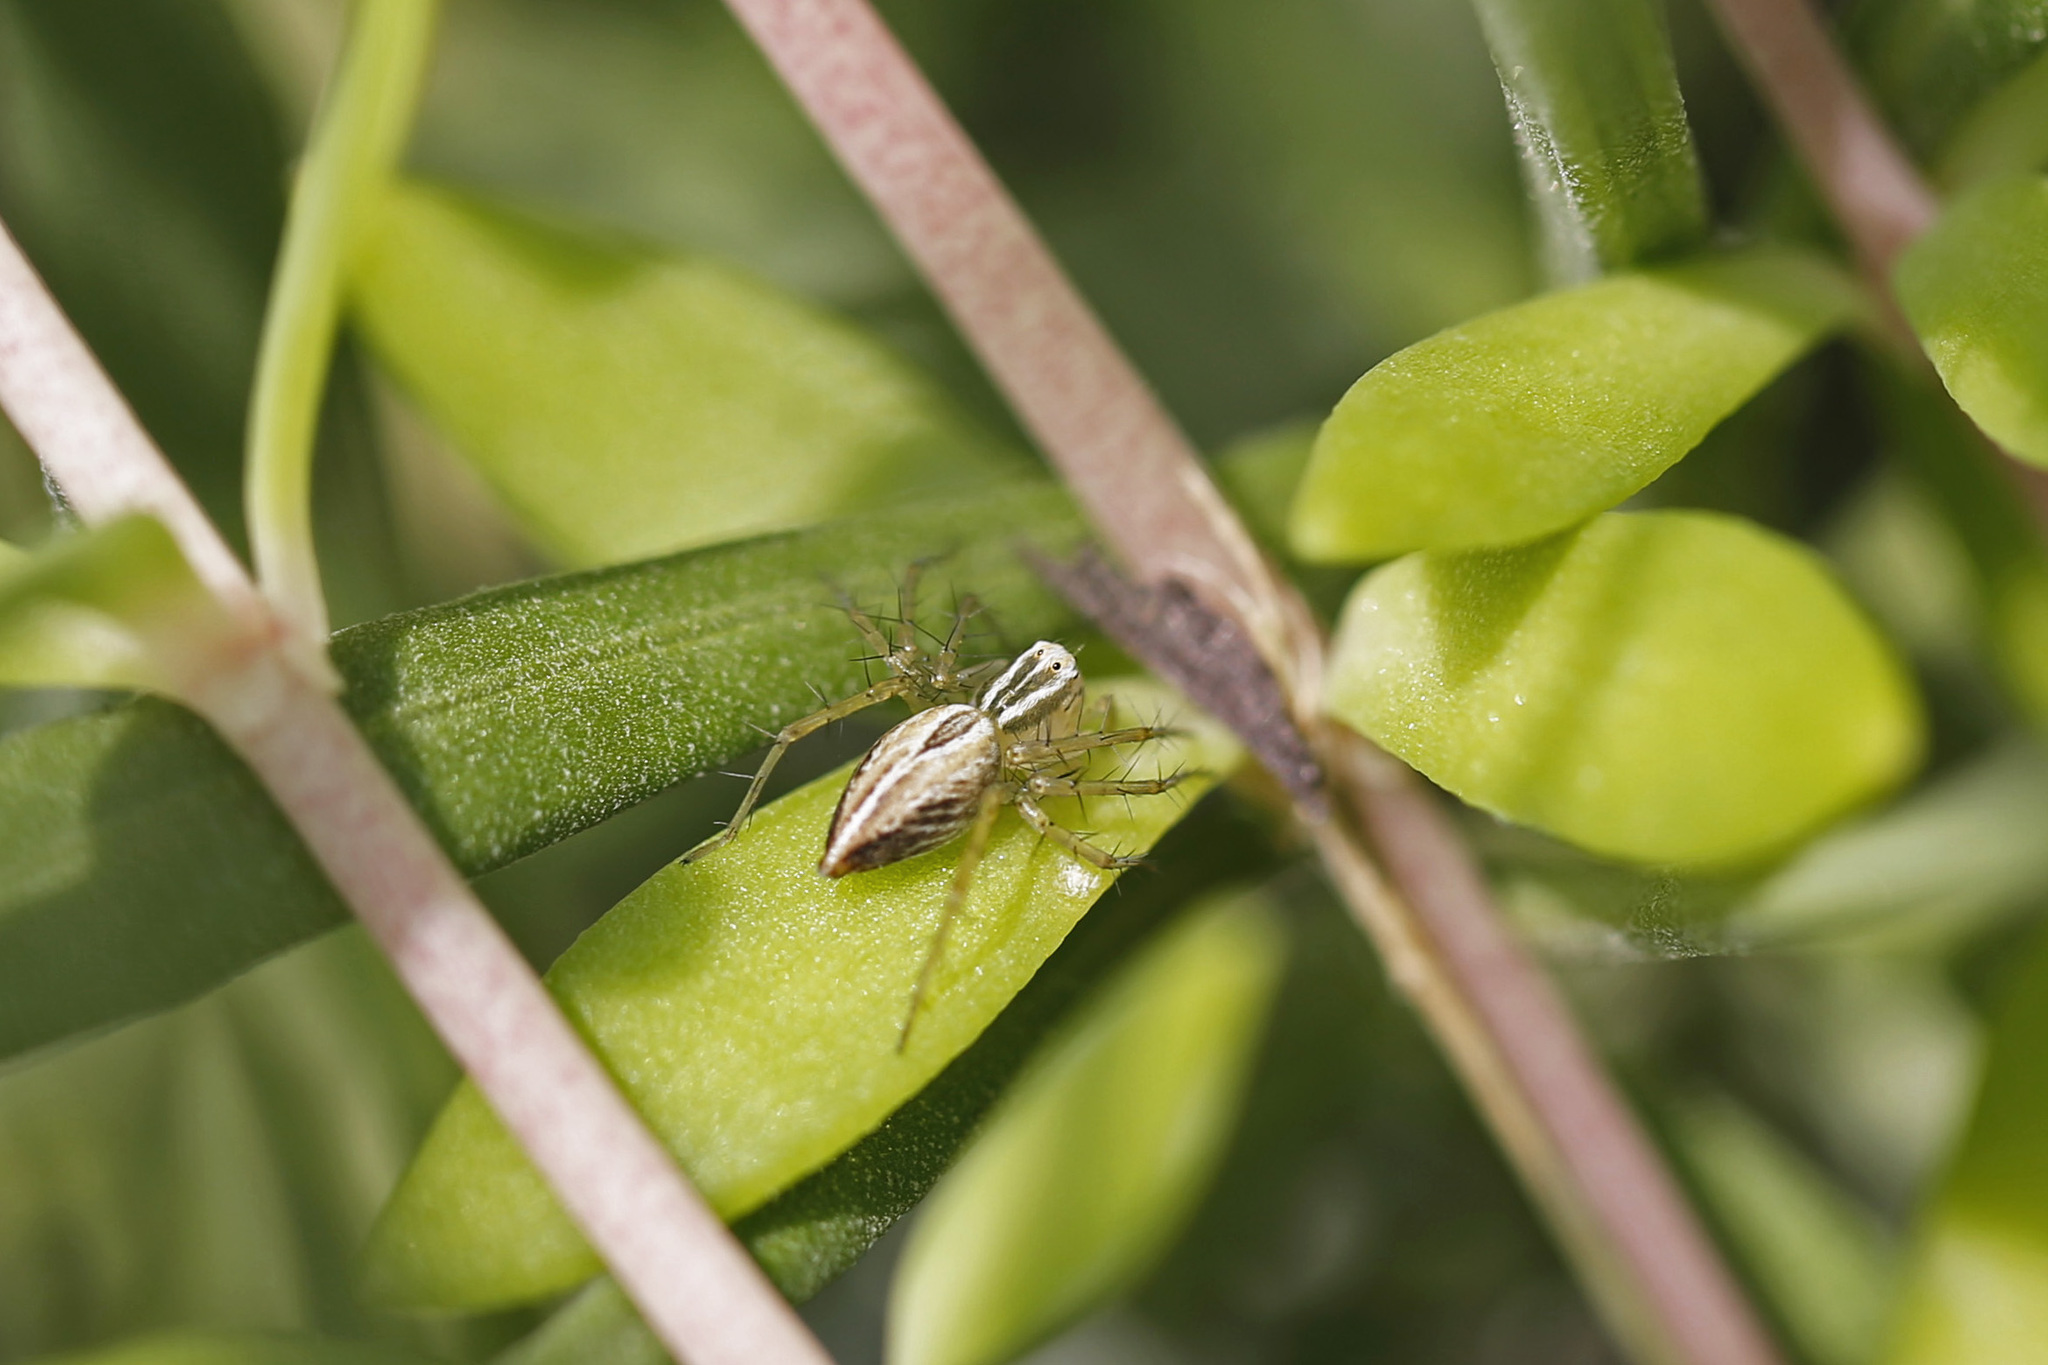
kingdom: Animalia
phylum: Arthropoda
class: Arachnida
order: Araneae
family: Oxyopidae
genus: Oxyopes
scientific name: Oxyopes salticus
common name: Lynx spiders
